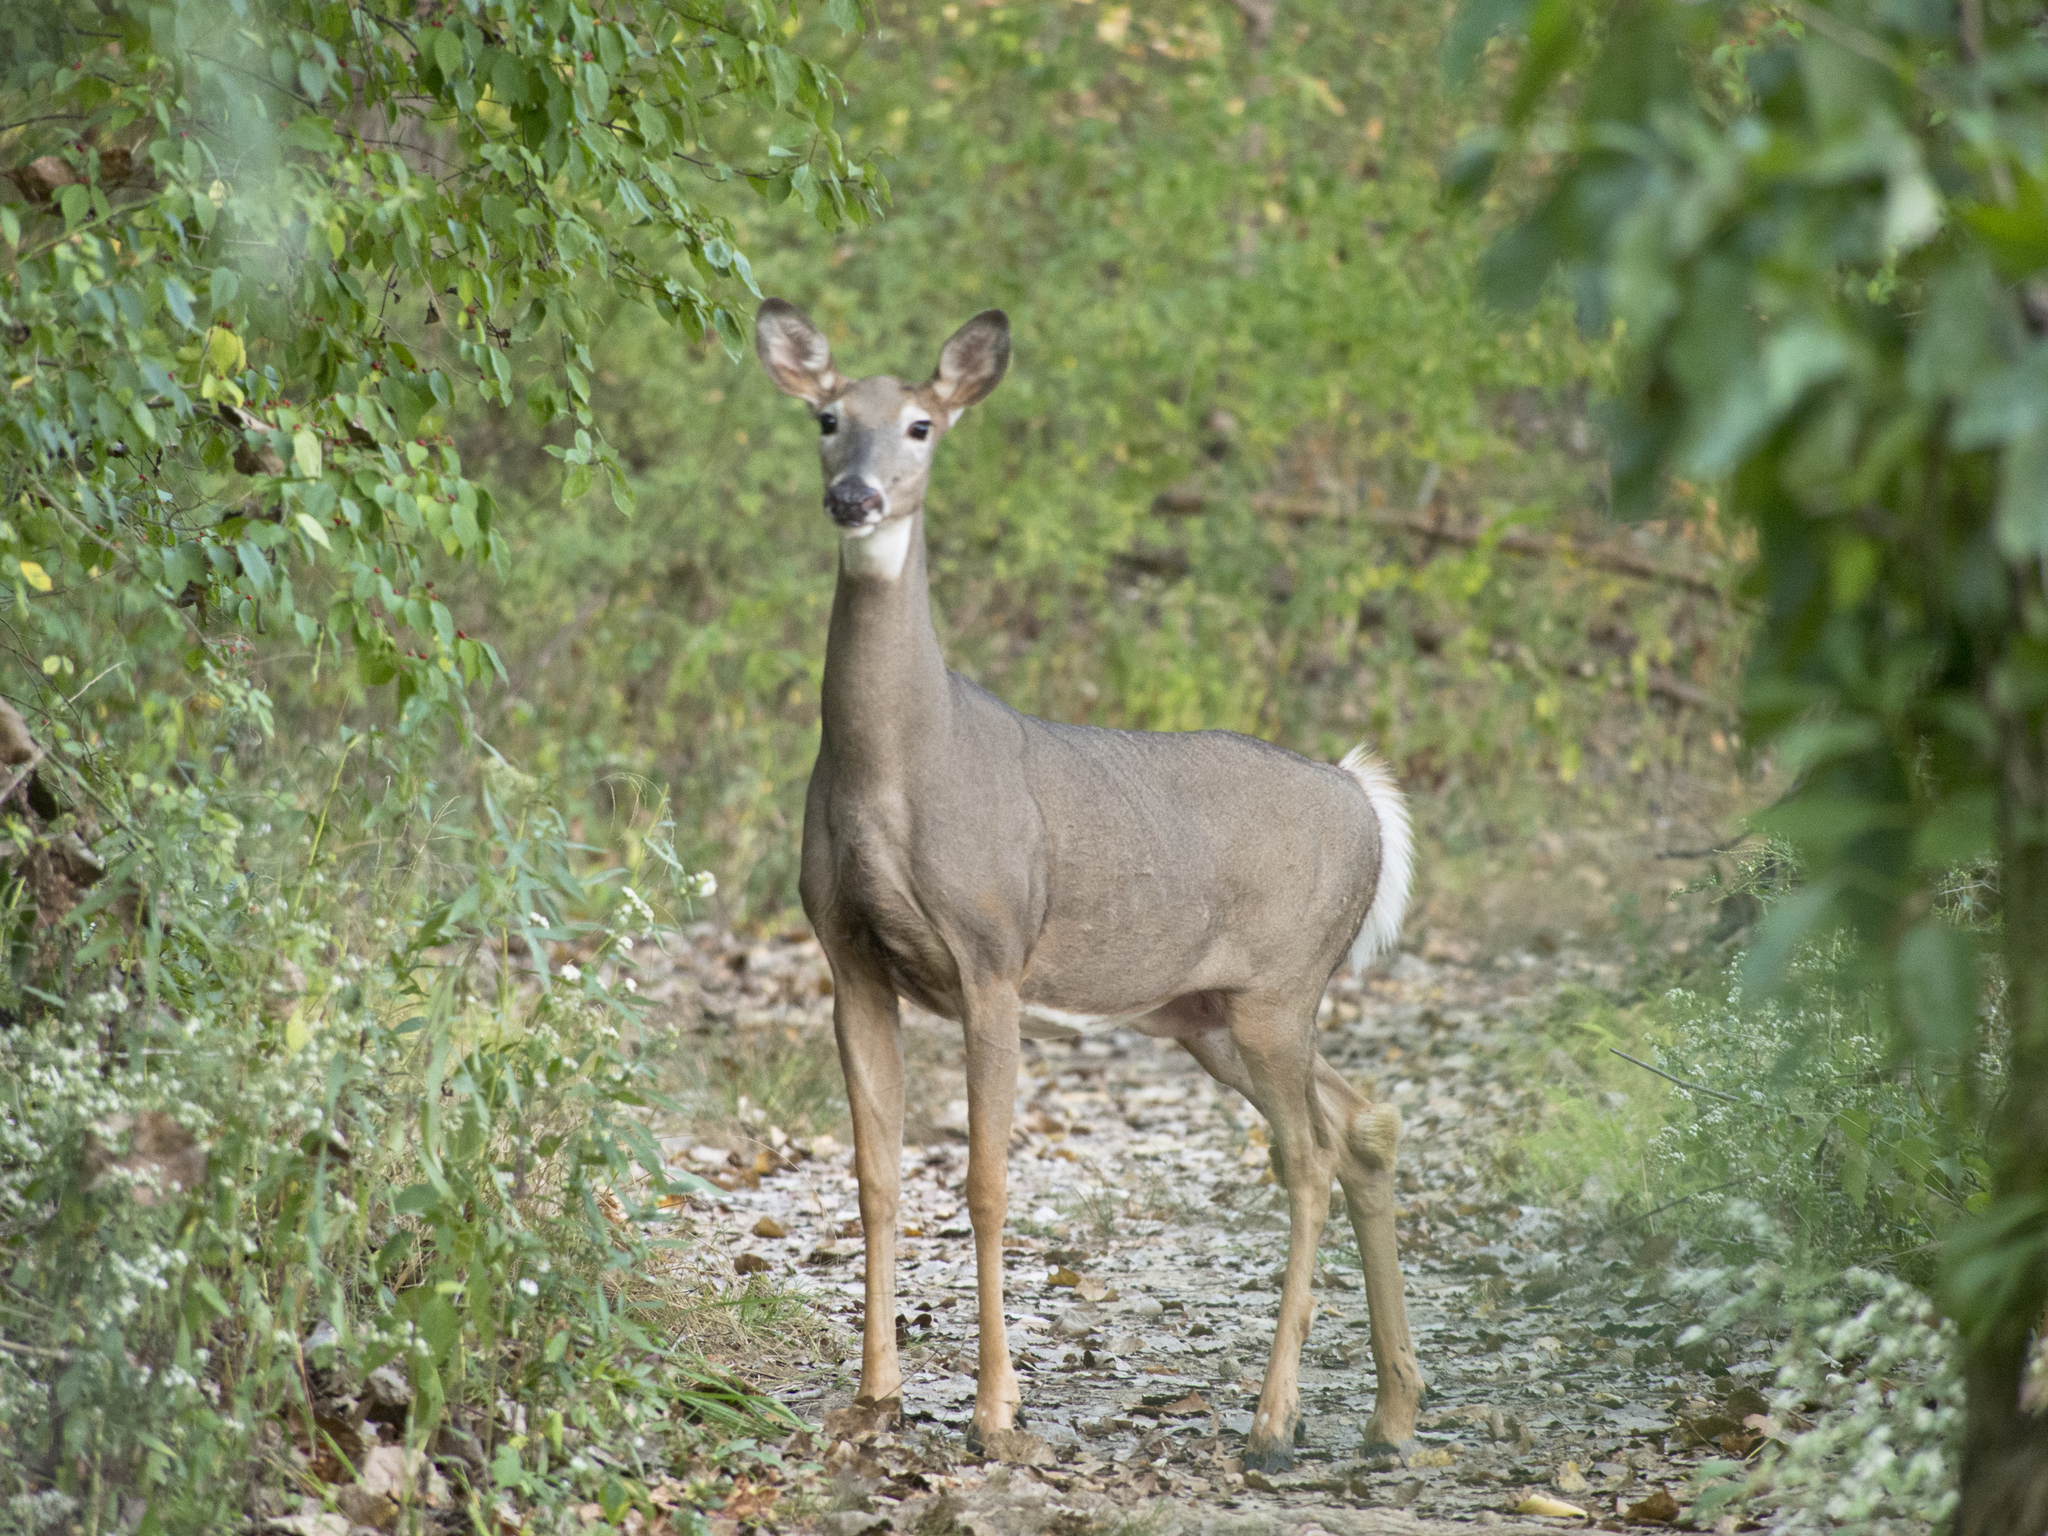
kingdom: Animalia
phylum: Chordata
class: Mammalia
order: Artiodactyla
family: Cervidae
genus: Odocoileus
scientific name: Odocoileus virginianus
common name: White-tailed deer
